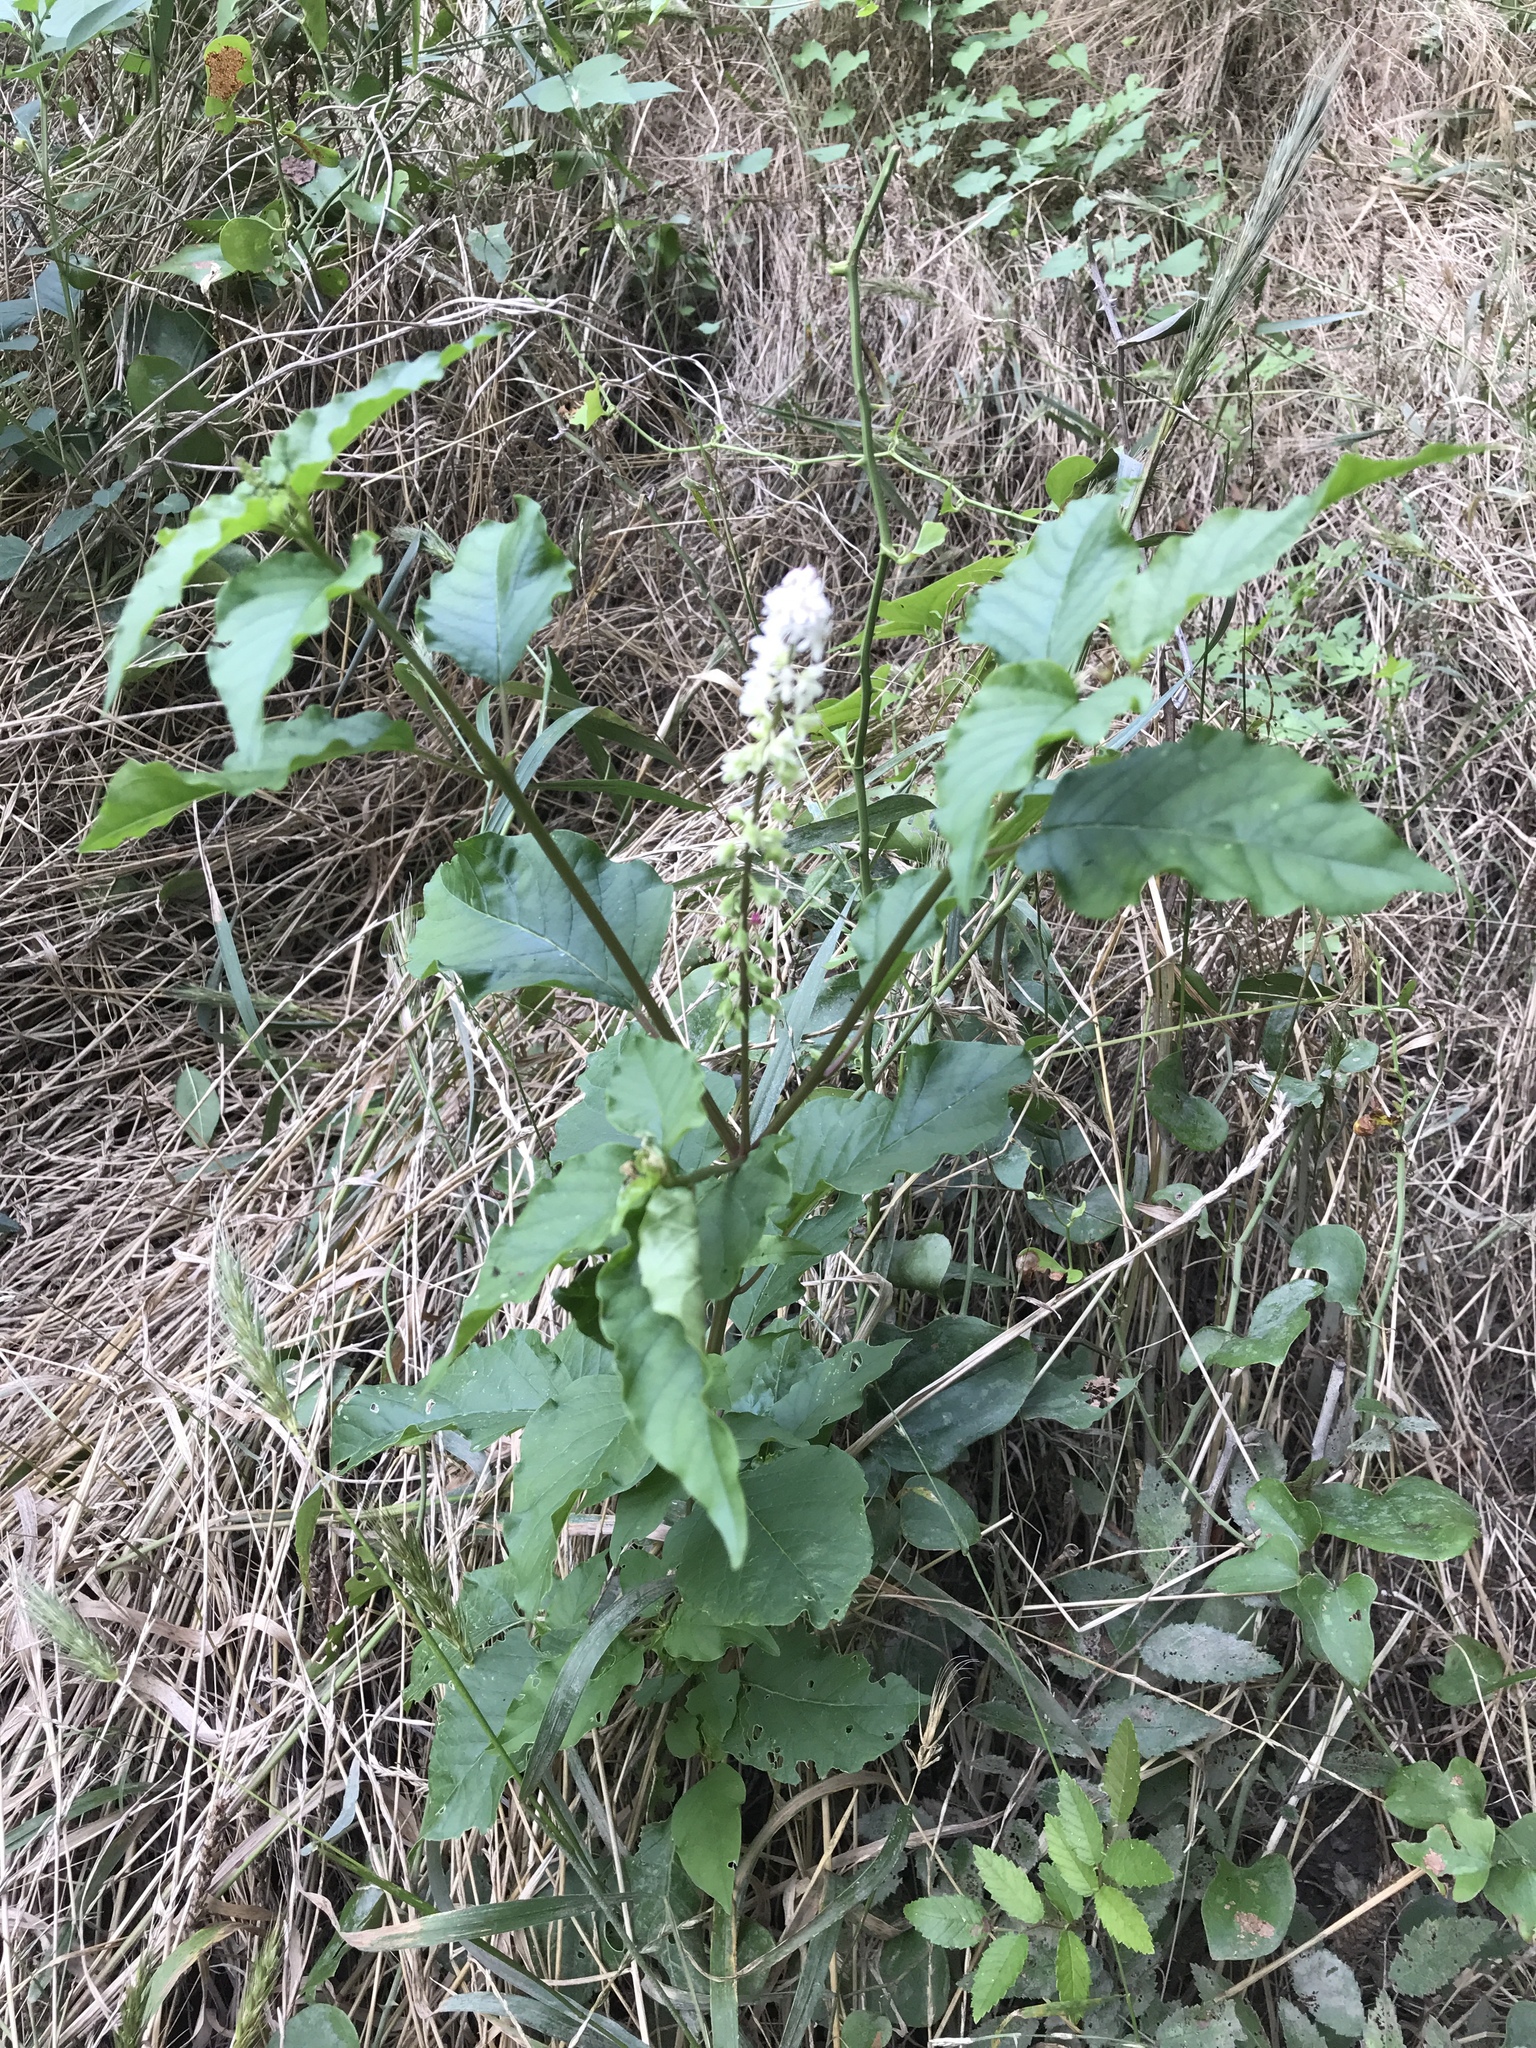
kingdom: Plantae
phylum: Tracheophyta
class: Magnoliopsida
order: Caryophyllales
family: Phytolaccaceae
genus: Rivina
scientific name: Rivina humilis
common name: Rougeplant
